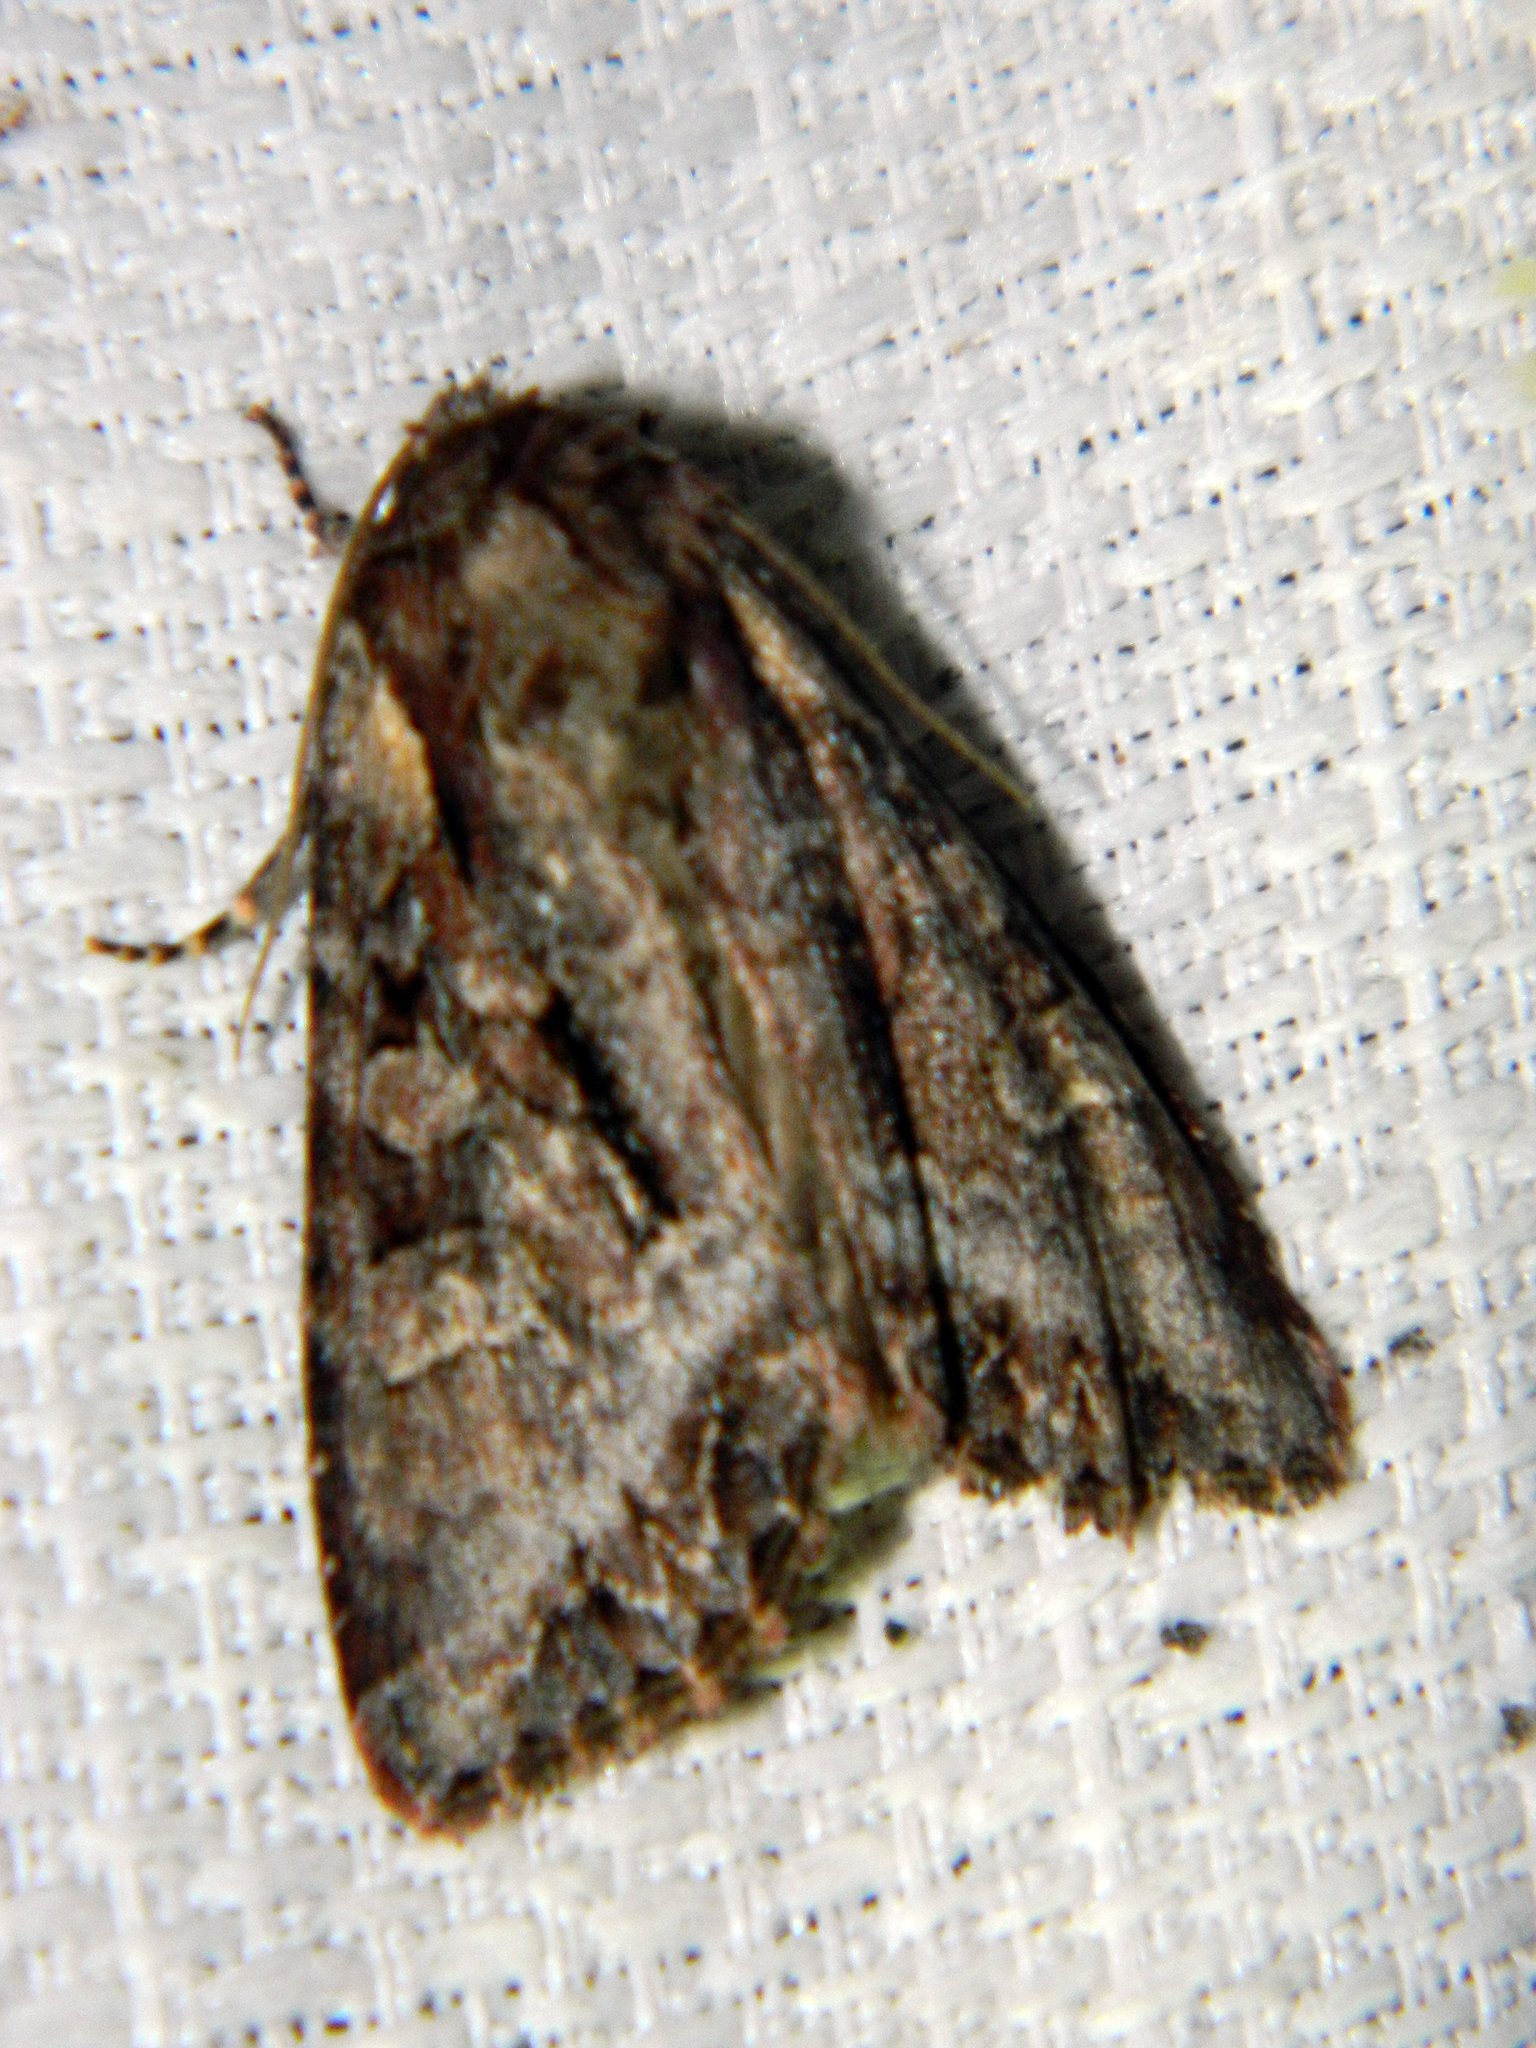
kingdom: Animalia
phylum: Arthropoda
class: Insecta
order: Lepidoptera
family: Noctuidae
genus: Lacanobia
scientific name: Lacanobia grandis
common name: Grand arches moth
